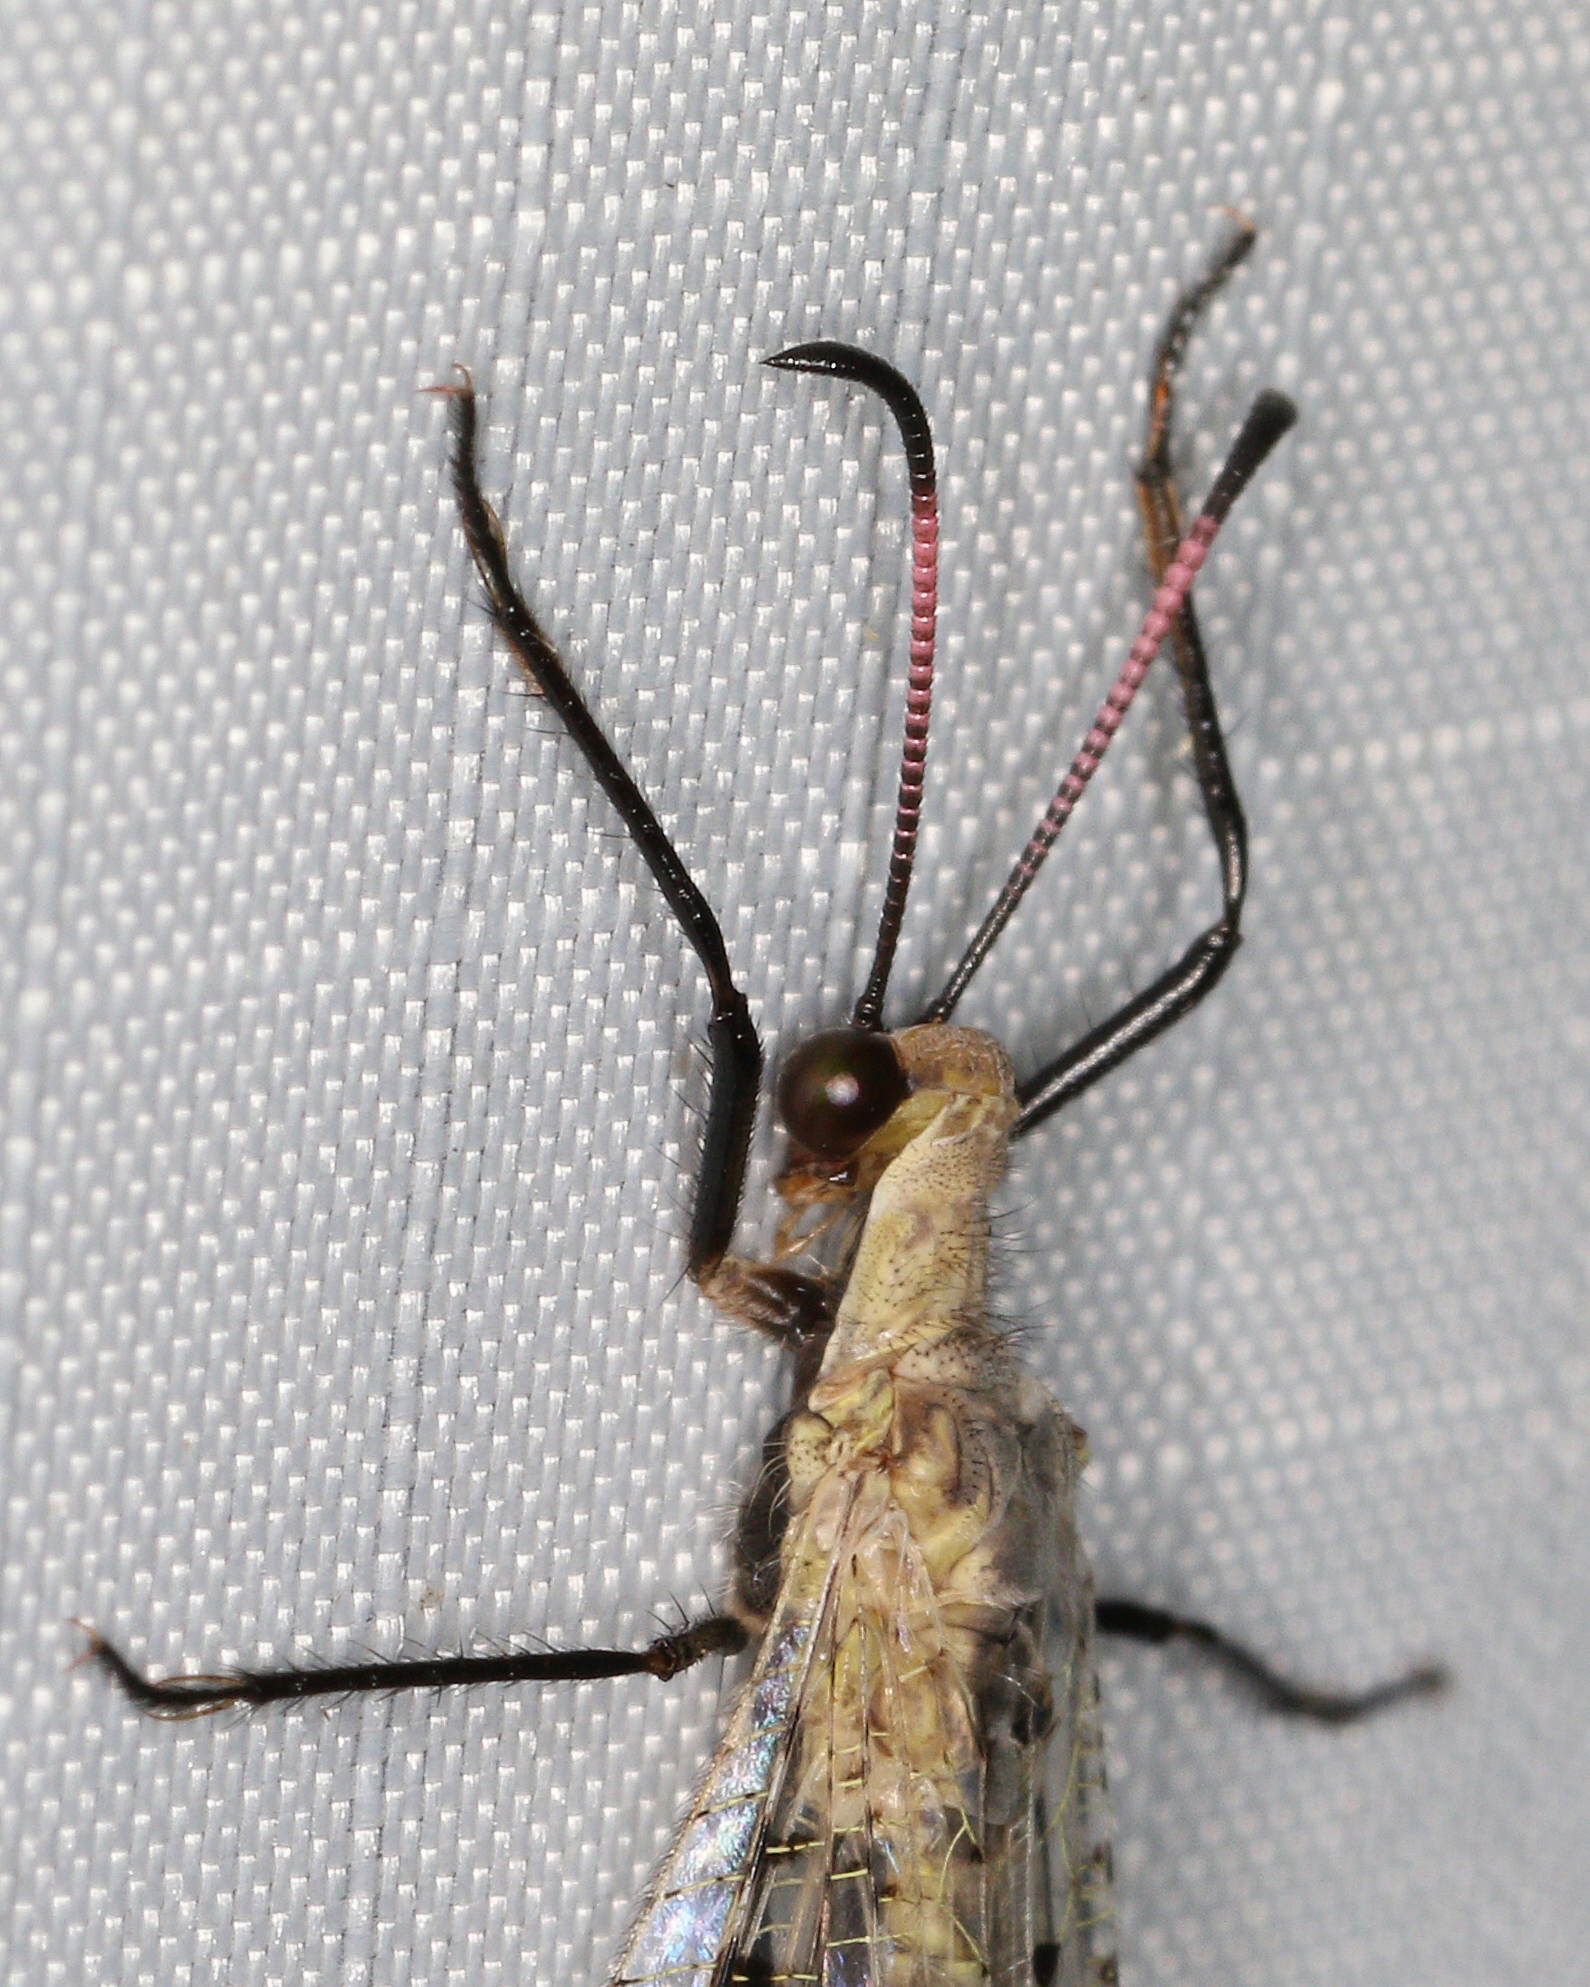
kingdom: Animalia
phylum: Arthropoda
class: Insecta
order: Neuroptera
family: Myrmeleontidae
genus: Dendroleon
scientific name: Dendroleon obsoletus
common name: Eastern spotted-winged antlion
